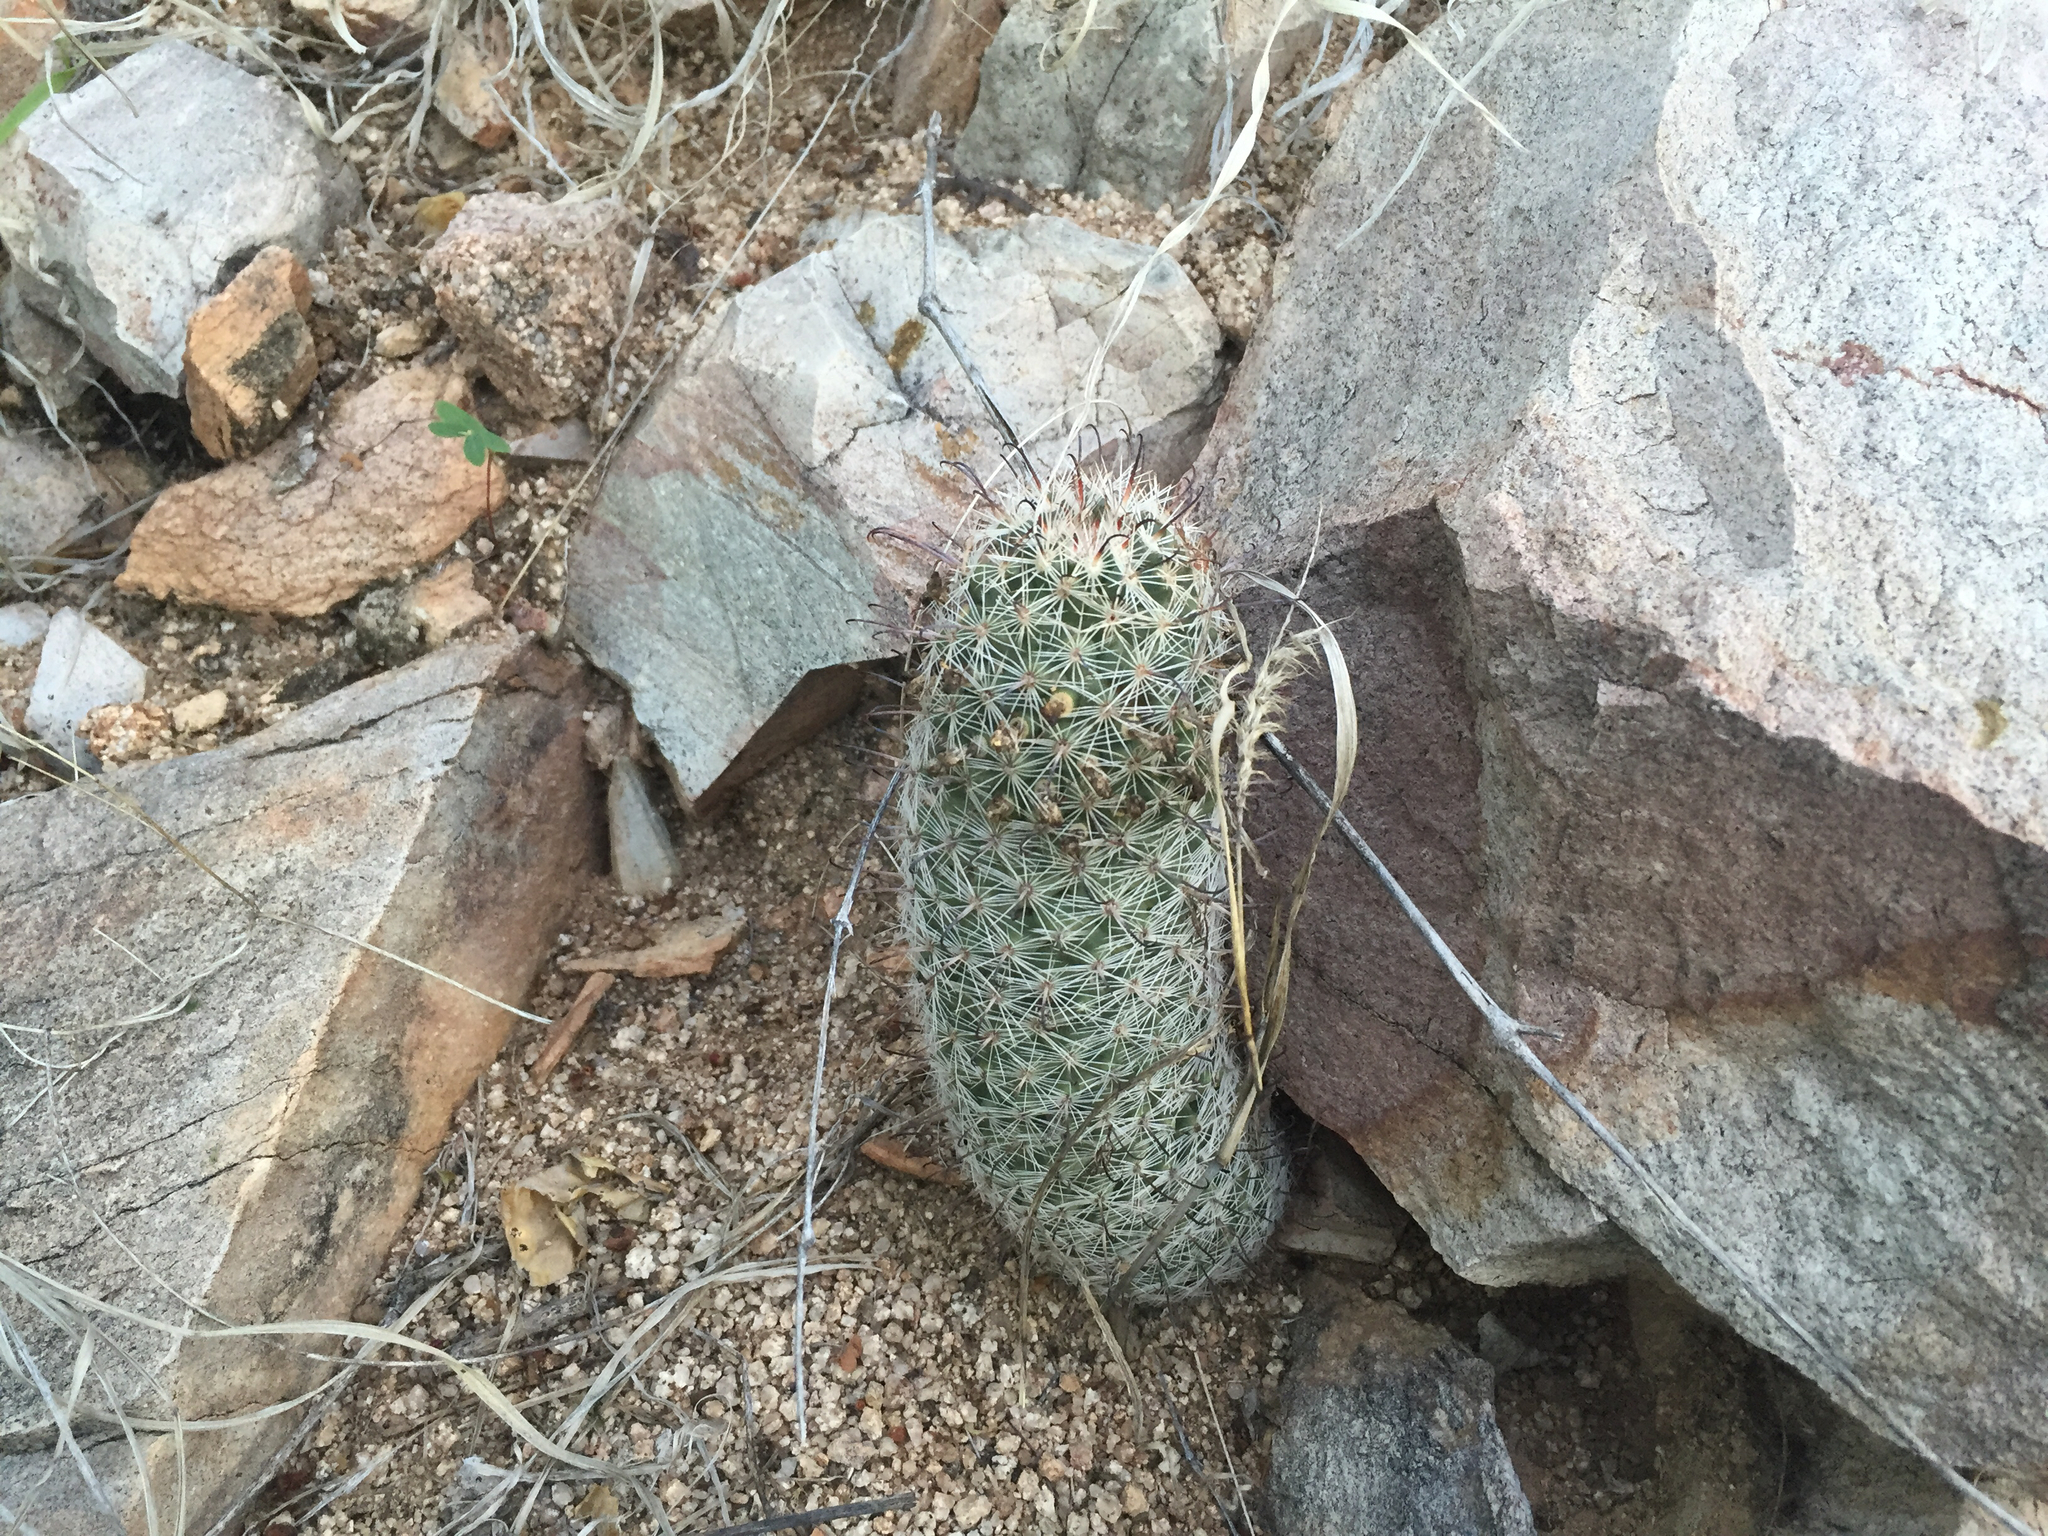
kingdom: Plantae
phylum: Tracheophyta
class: Magnoliopsida
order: Caryophyllales
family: Cactaceae
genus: Cochemiea
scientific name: Cochemiea sheldonii
